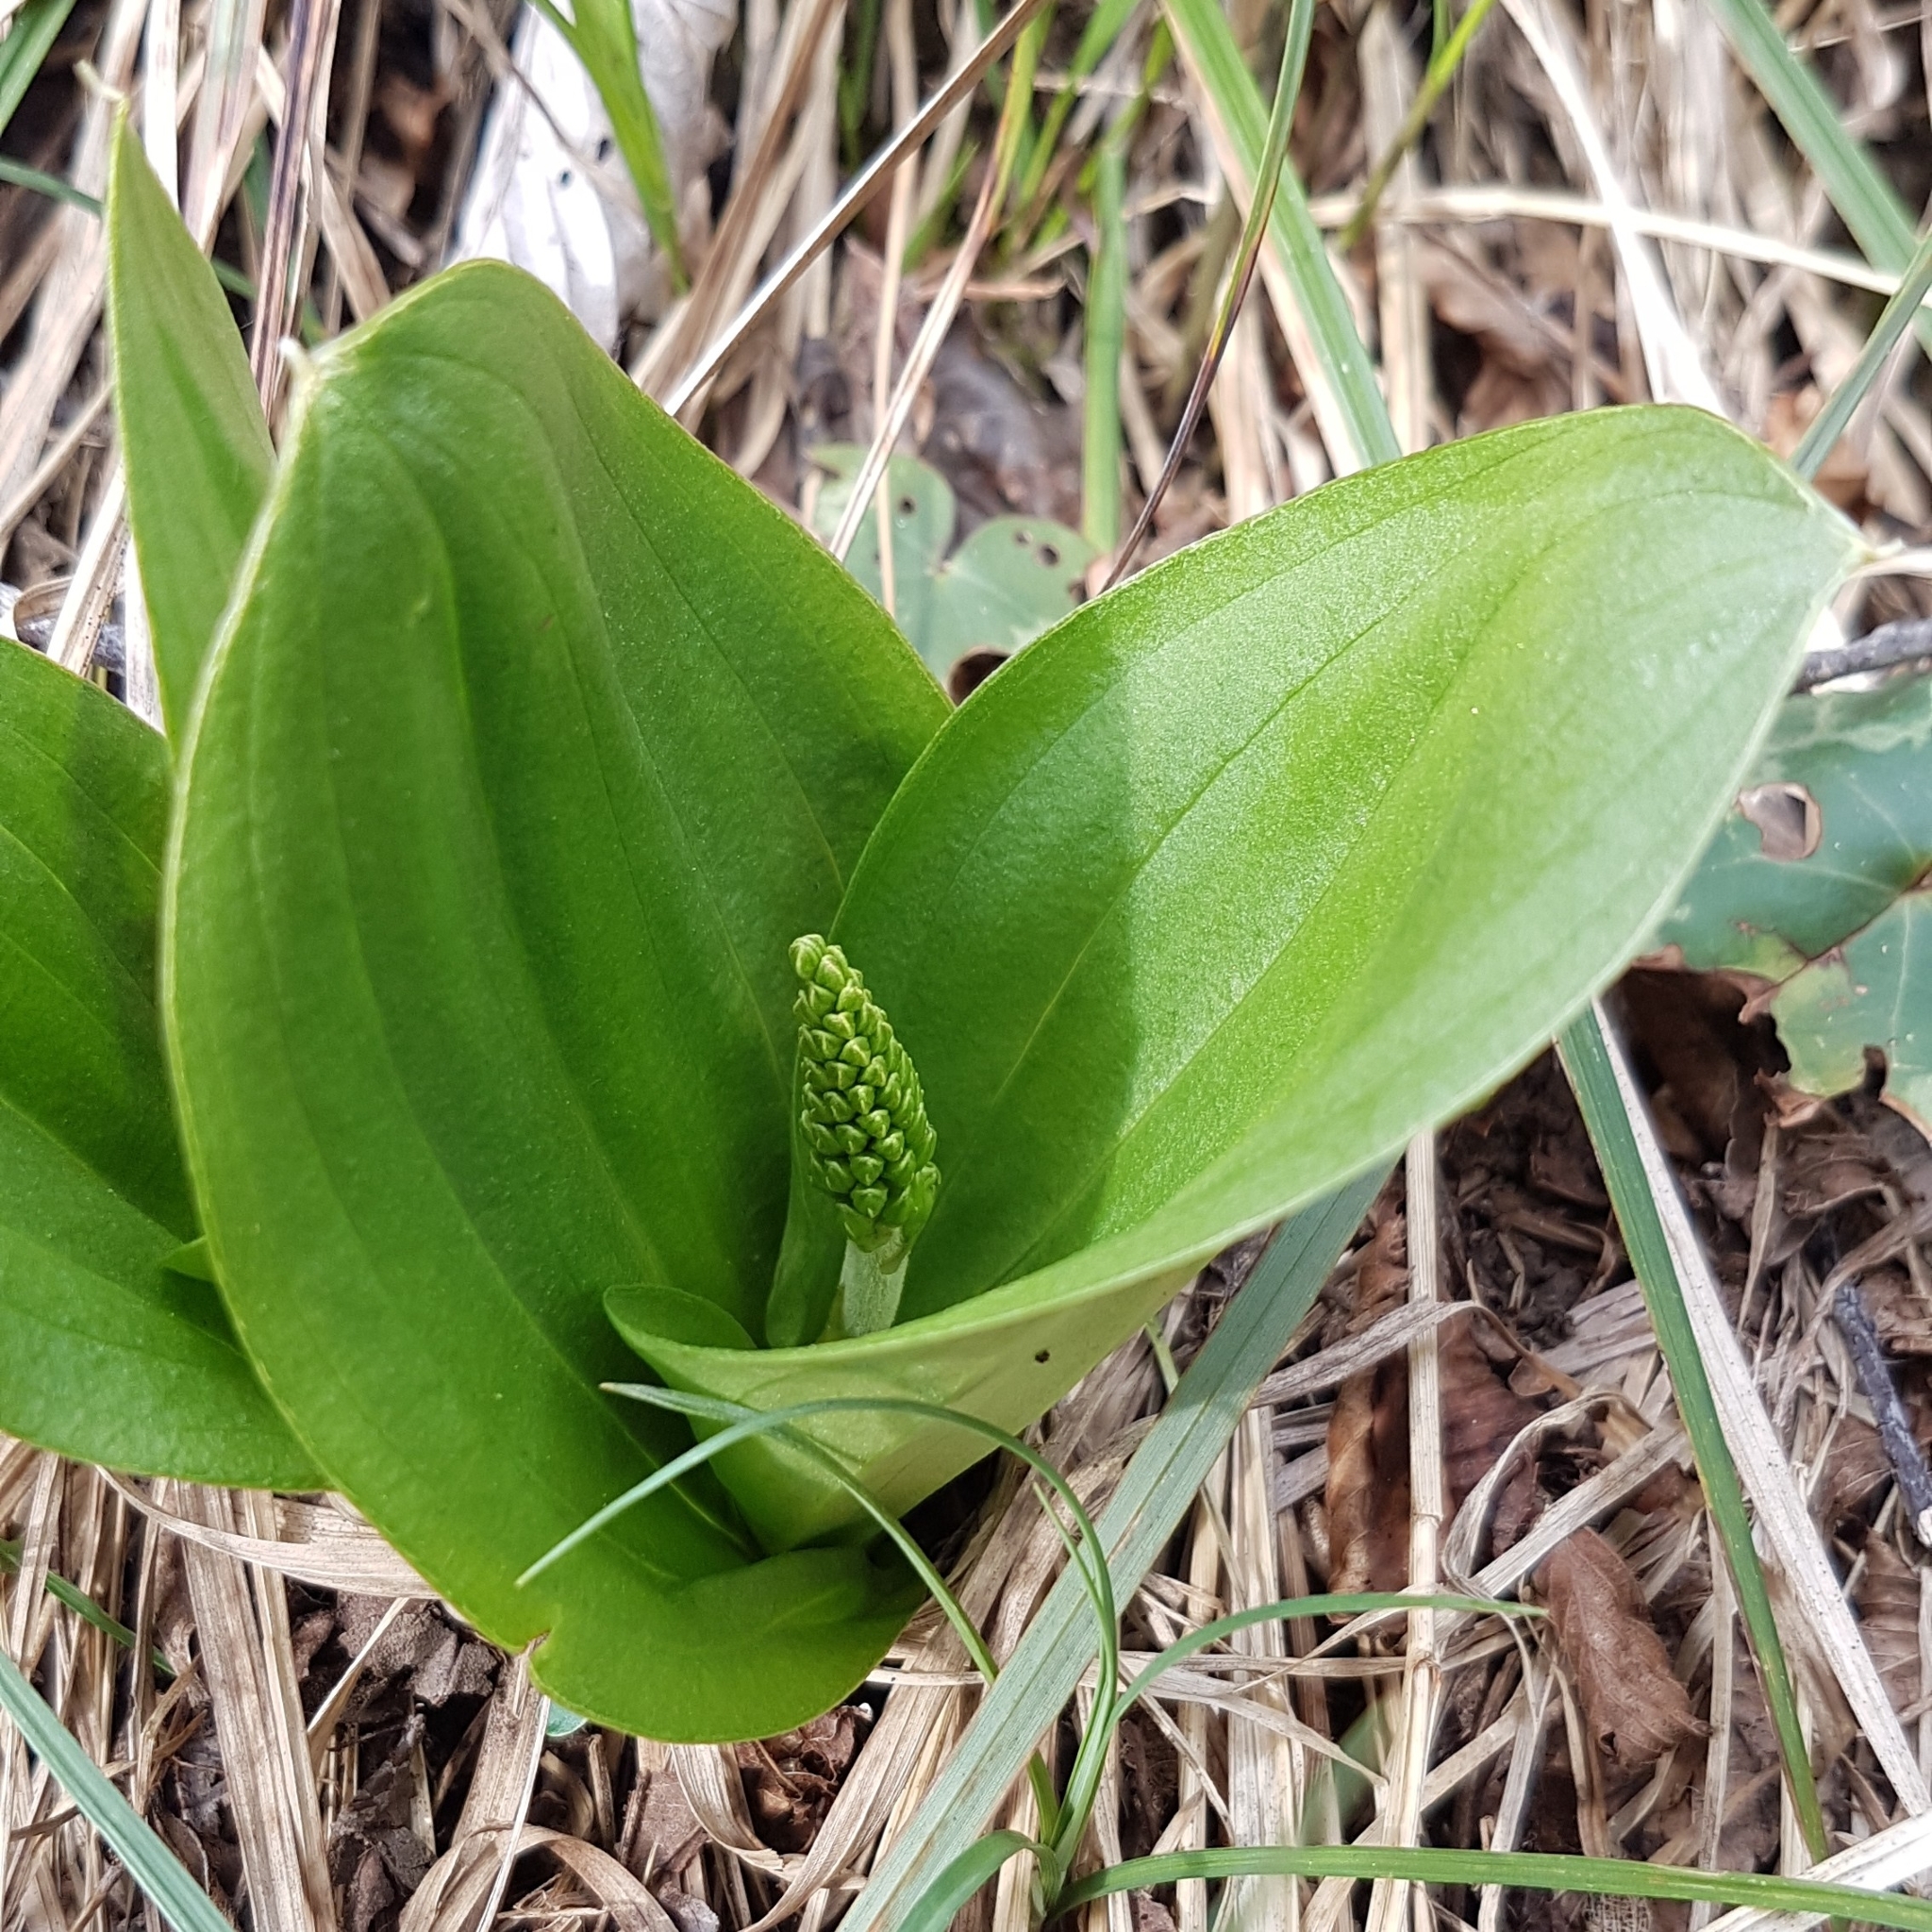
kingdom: Plantae
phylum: Tracheophyta
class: Liliopsida
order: Asparagales
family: Orchidaceae
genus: Neottia
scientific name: Neottia ovata
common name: Common twayblade
